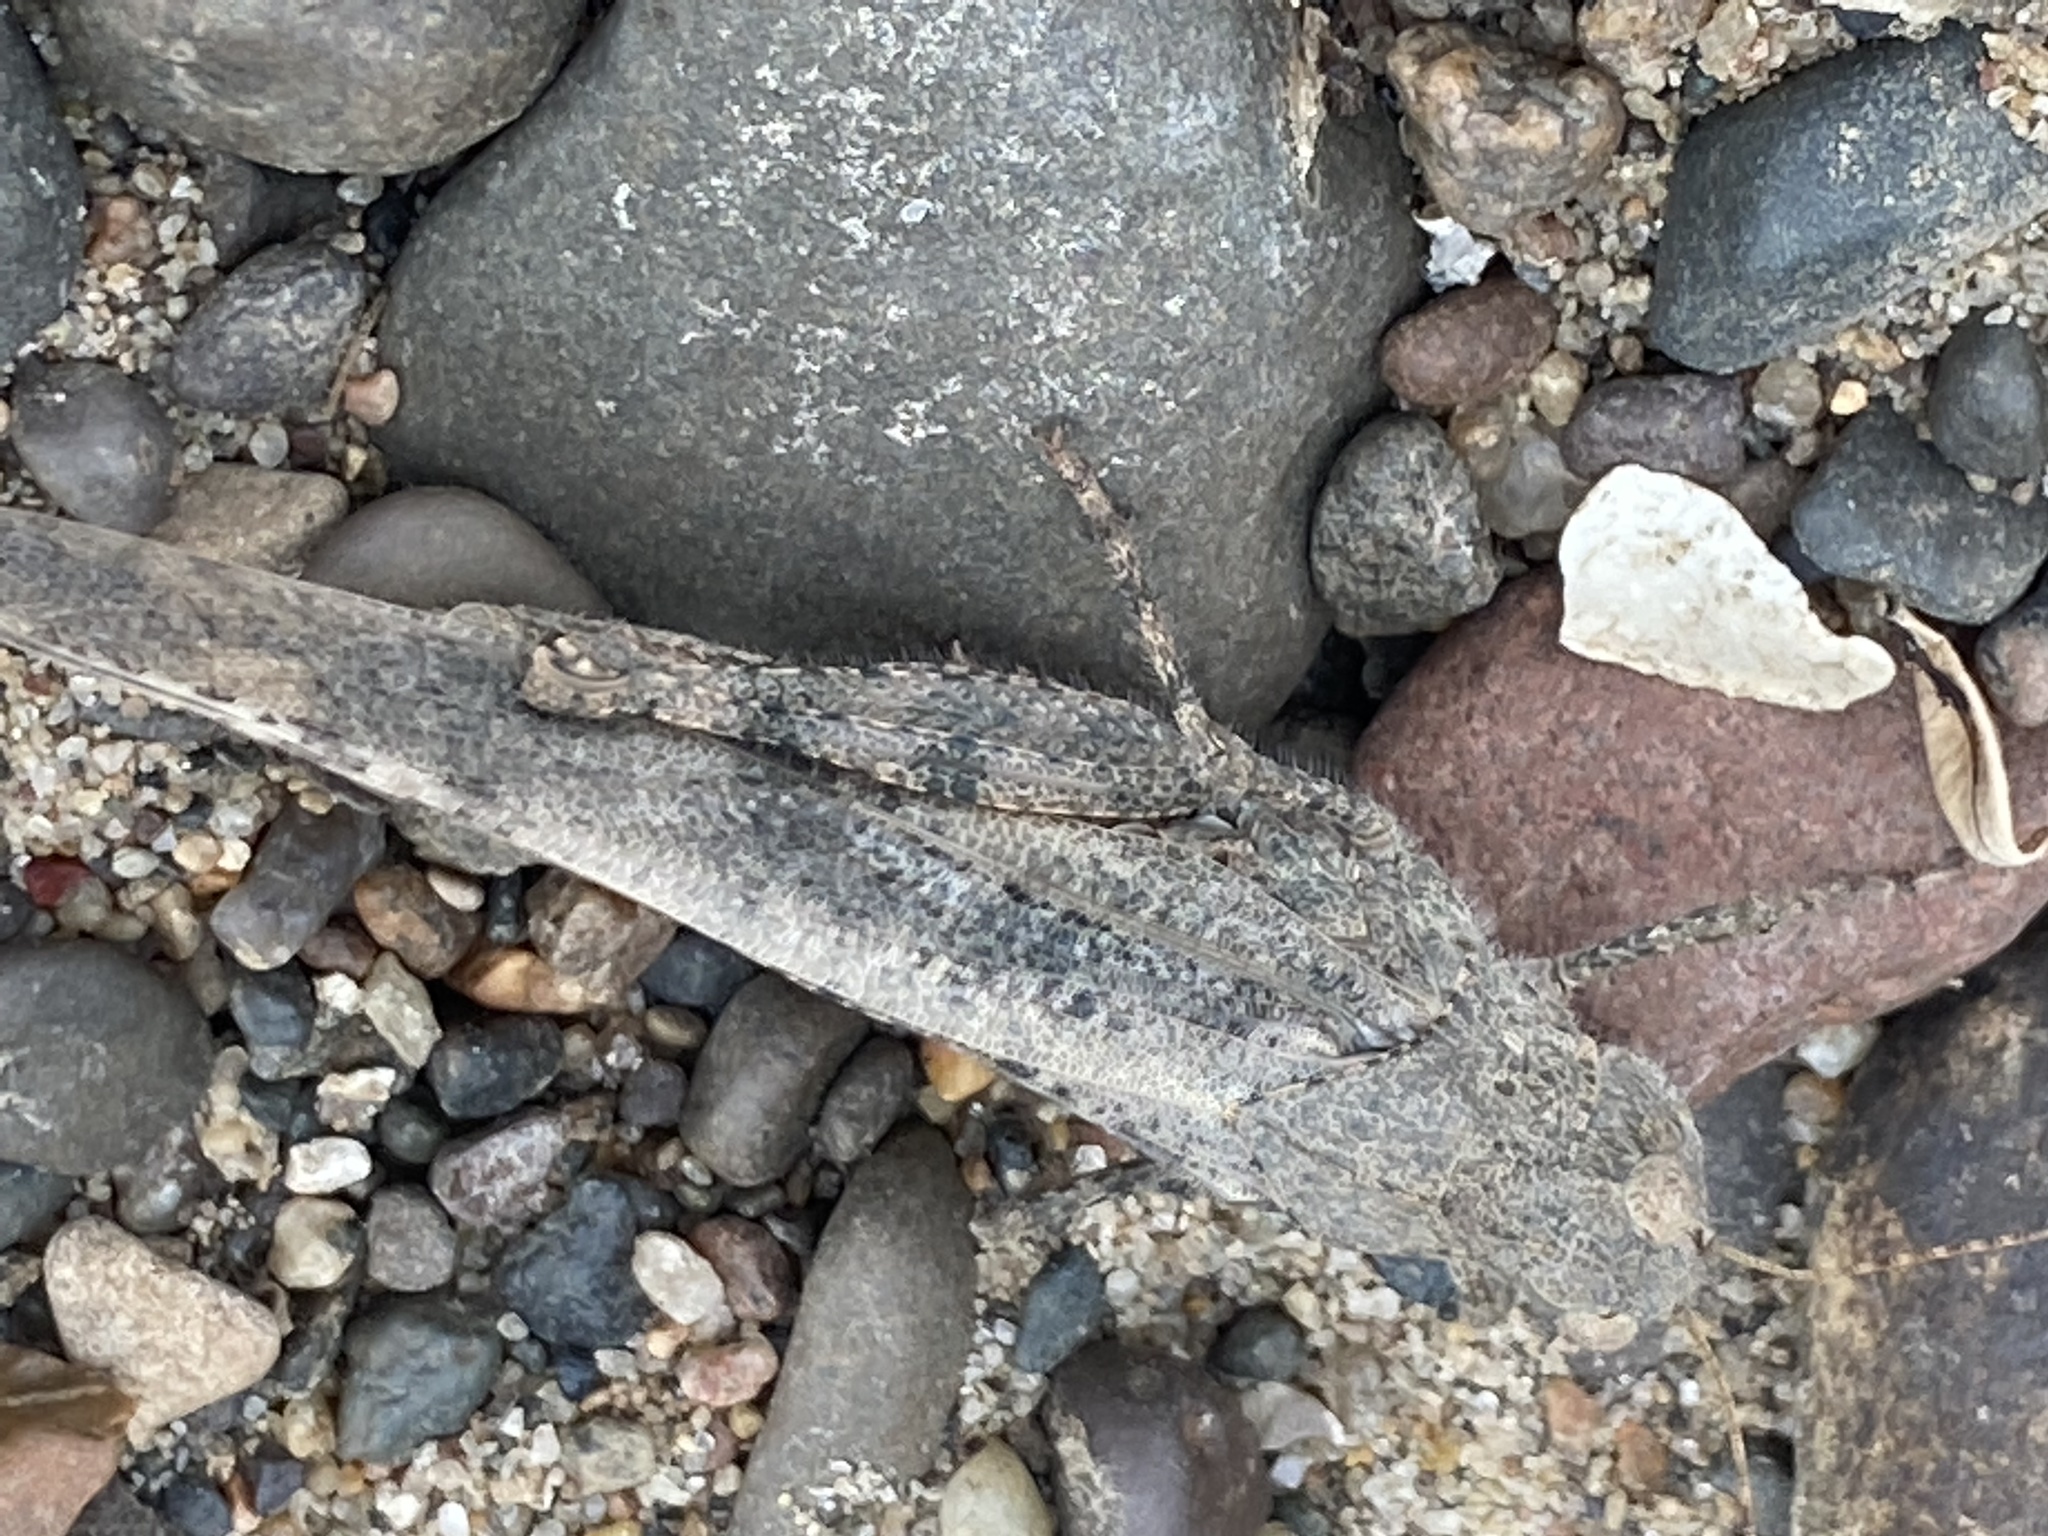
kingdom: Animalia
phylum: Arthropoda
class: Insecta
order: Orthoptera
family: Acrididae
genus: Dissosteira
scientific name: Dissosteira carolina
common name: Carolina grasshopper
